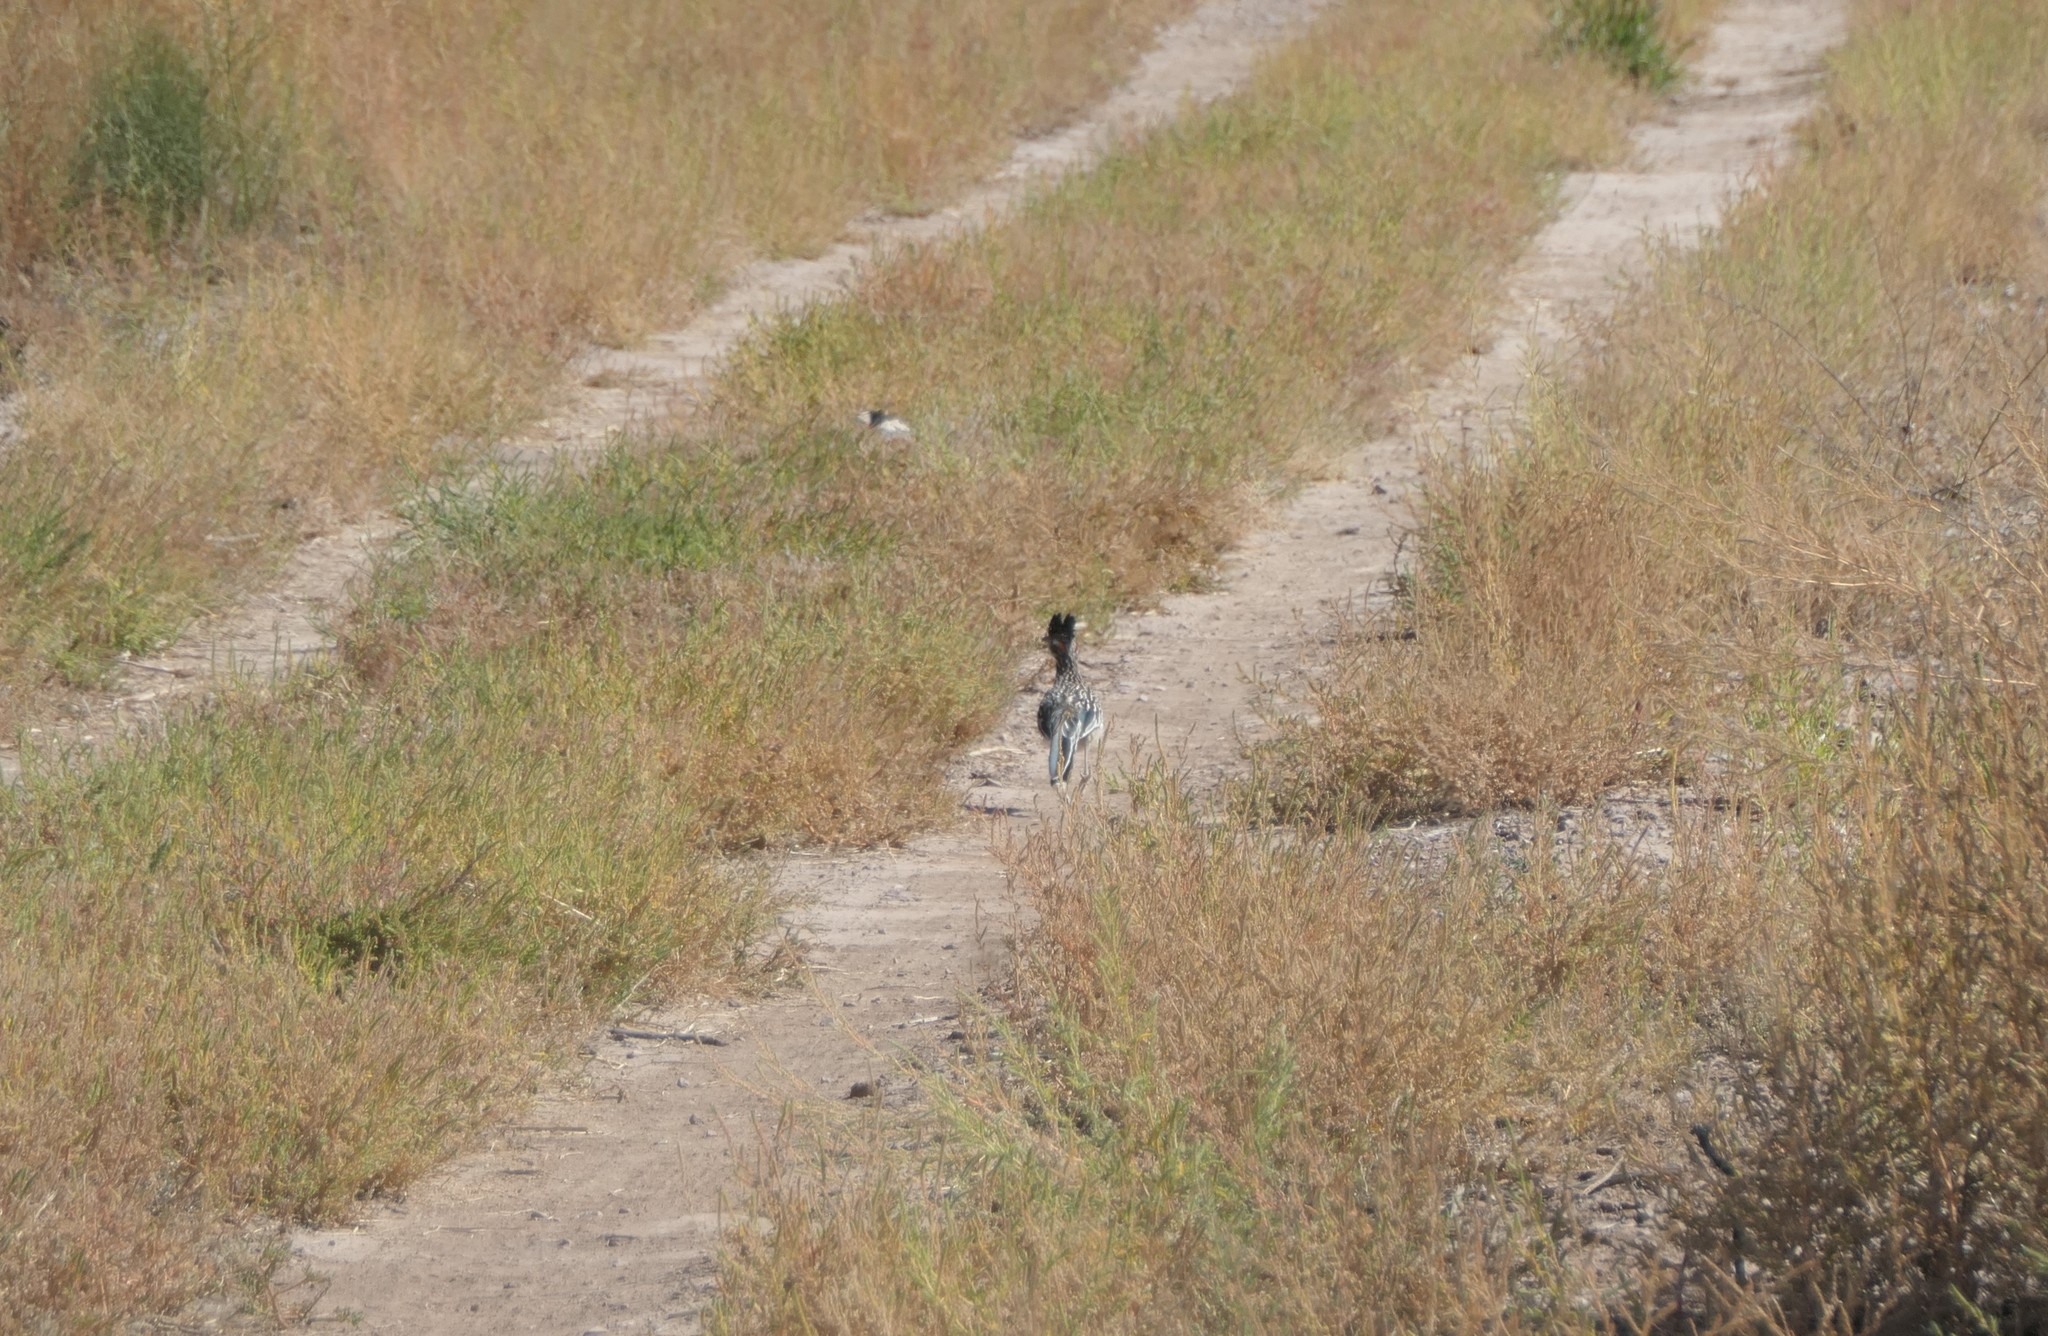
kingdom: Animalia
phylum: Chordata
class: Aves
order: Cuculiformes
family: Cuculidae
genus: Geococcyx
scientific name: Geococcyx californianus
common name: Greater roadrunner
